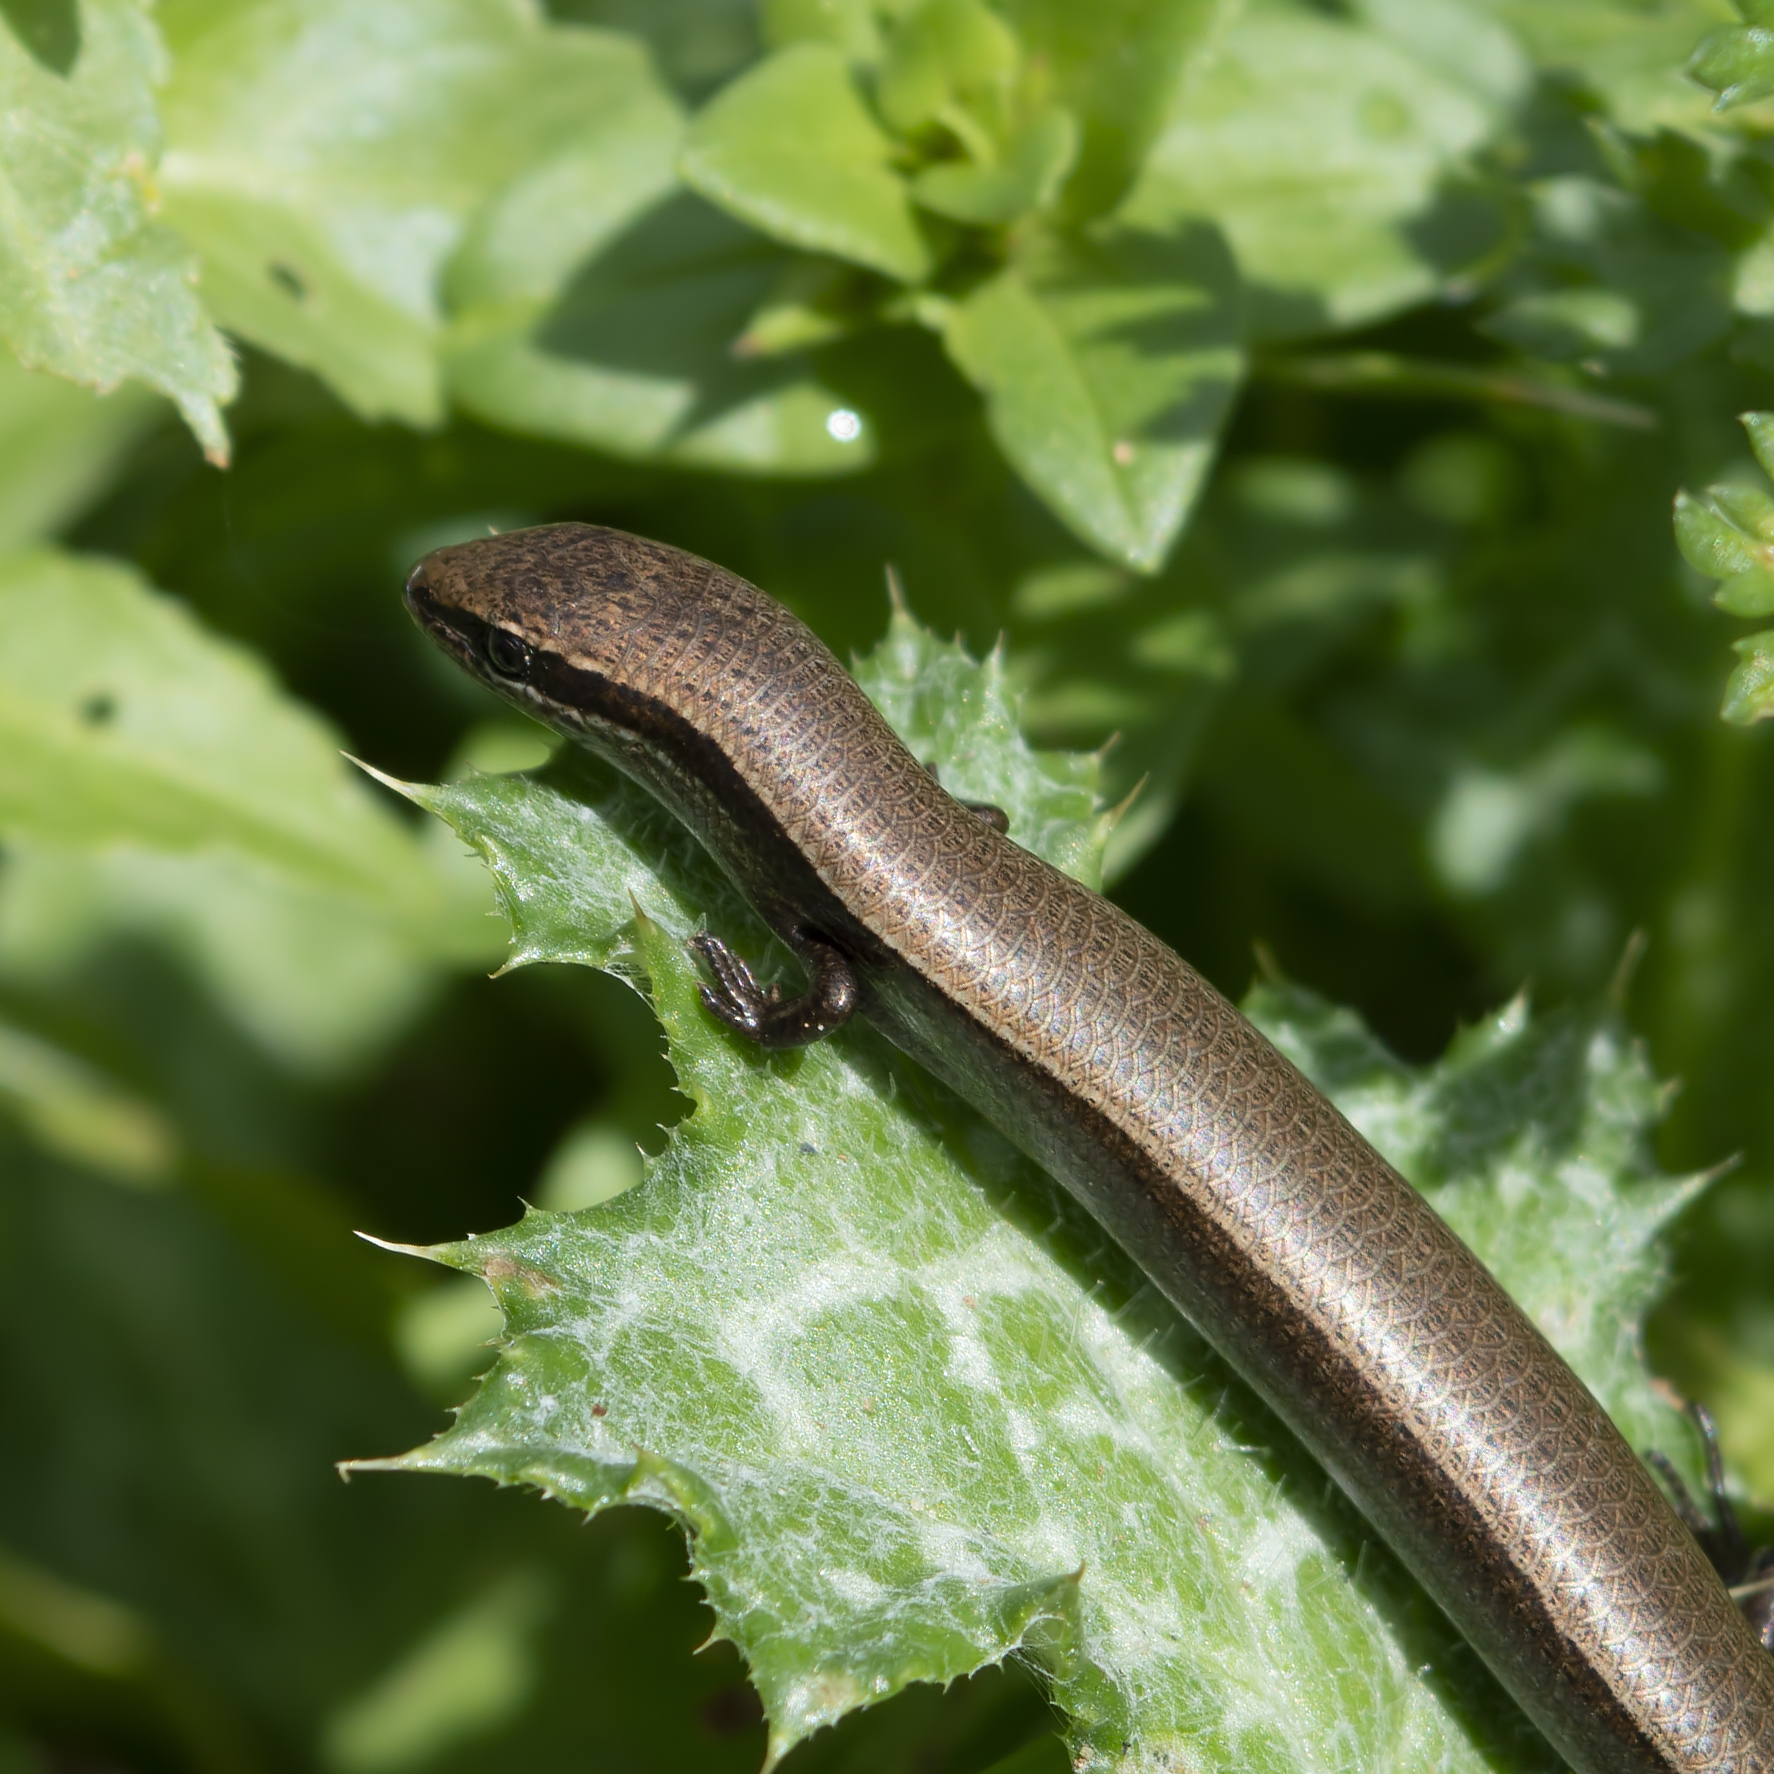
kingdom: Animalia
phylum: Chordata
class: Squamata
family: Scincidae
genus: Ablepharus
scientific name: Ablepharus kitaibelii
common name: Juniper skink
